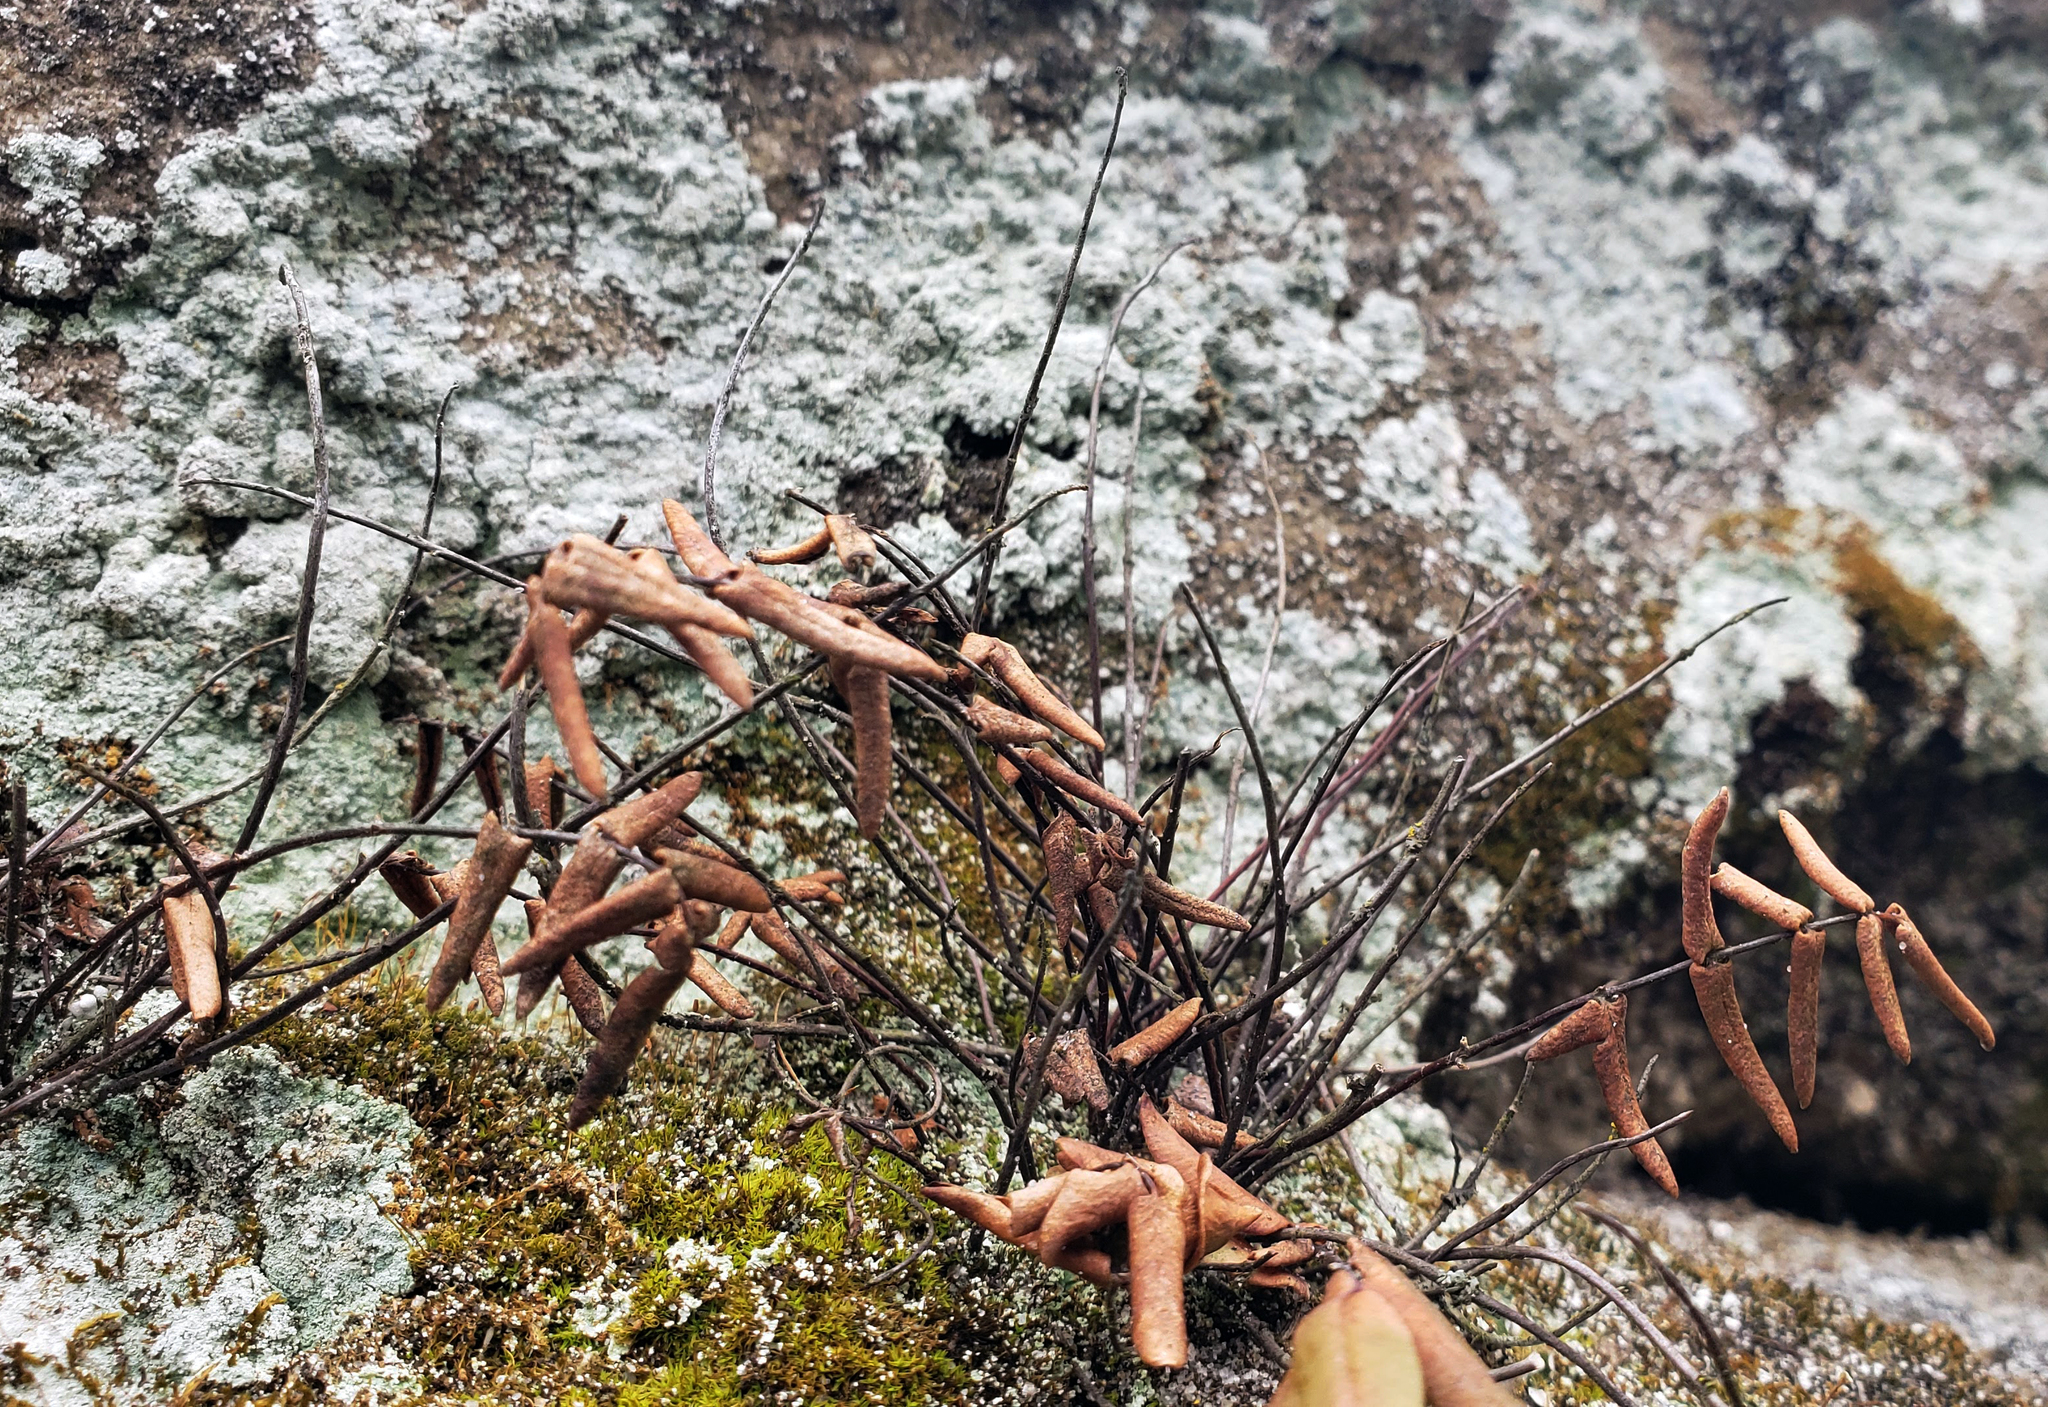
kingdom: Plantae
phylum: Tracheophyta
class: Polypodiopsida
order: Polypodiales
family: Pteridaceae
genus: Pellaea
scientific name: Pellaea glabella
